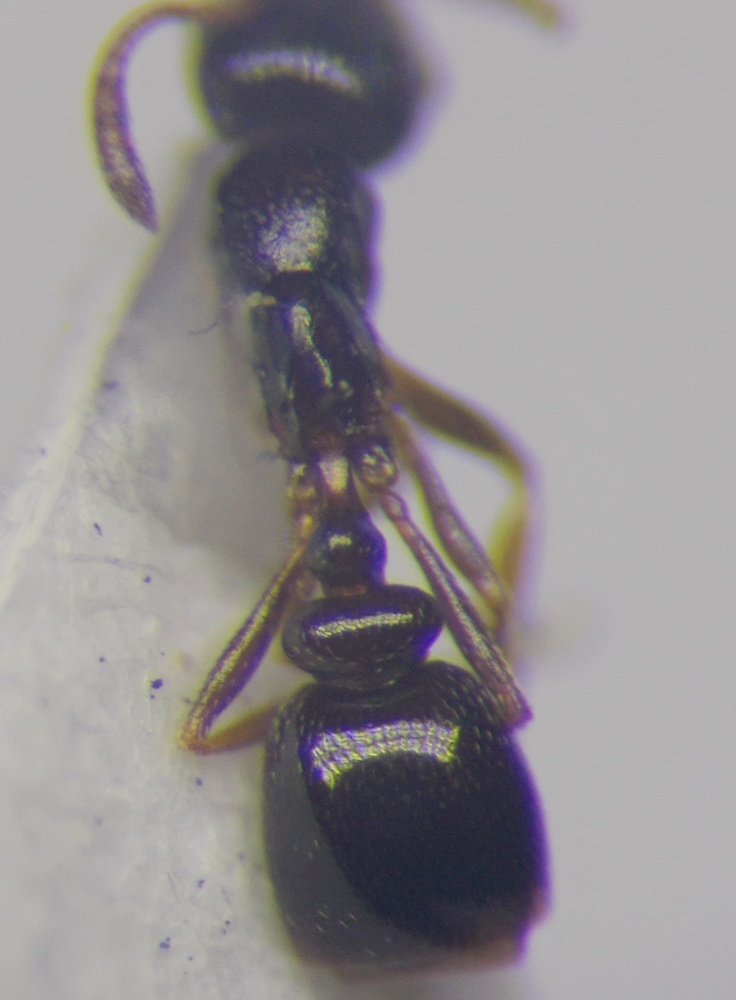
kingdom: Animalia
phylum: Arthropoda
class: Insecta
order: Hymenoptera
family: Formicidae
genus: Cardiocondyla
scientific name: Cardiocondyla sahlbergi
